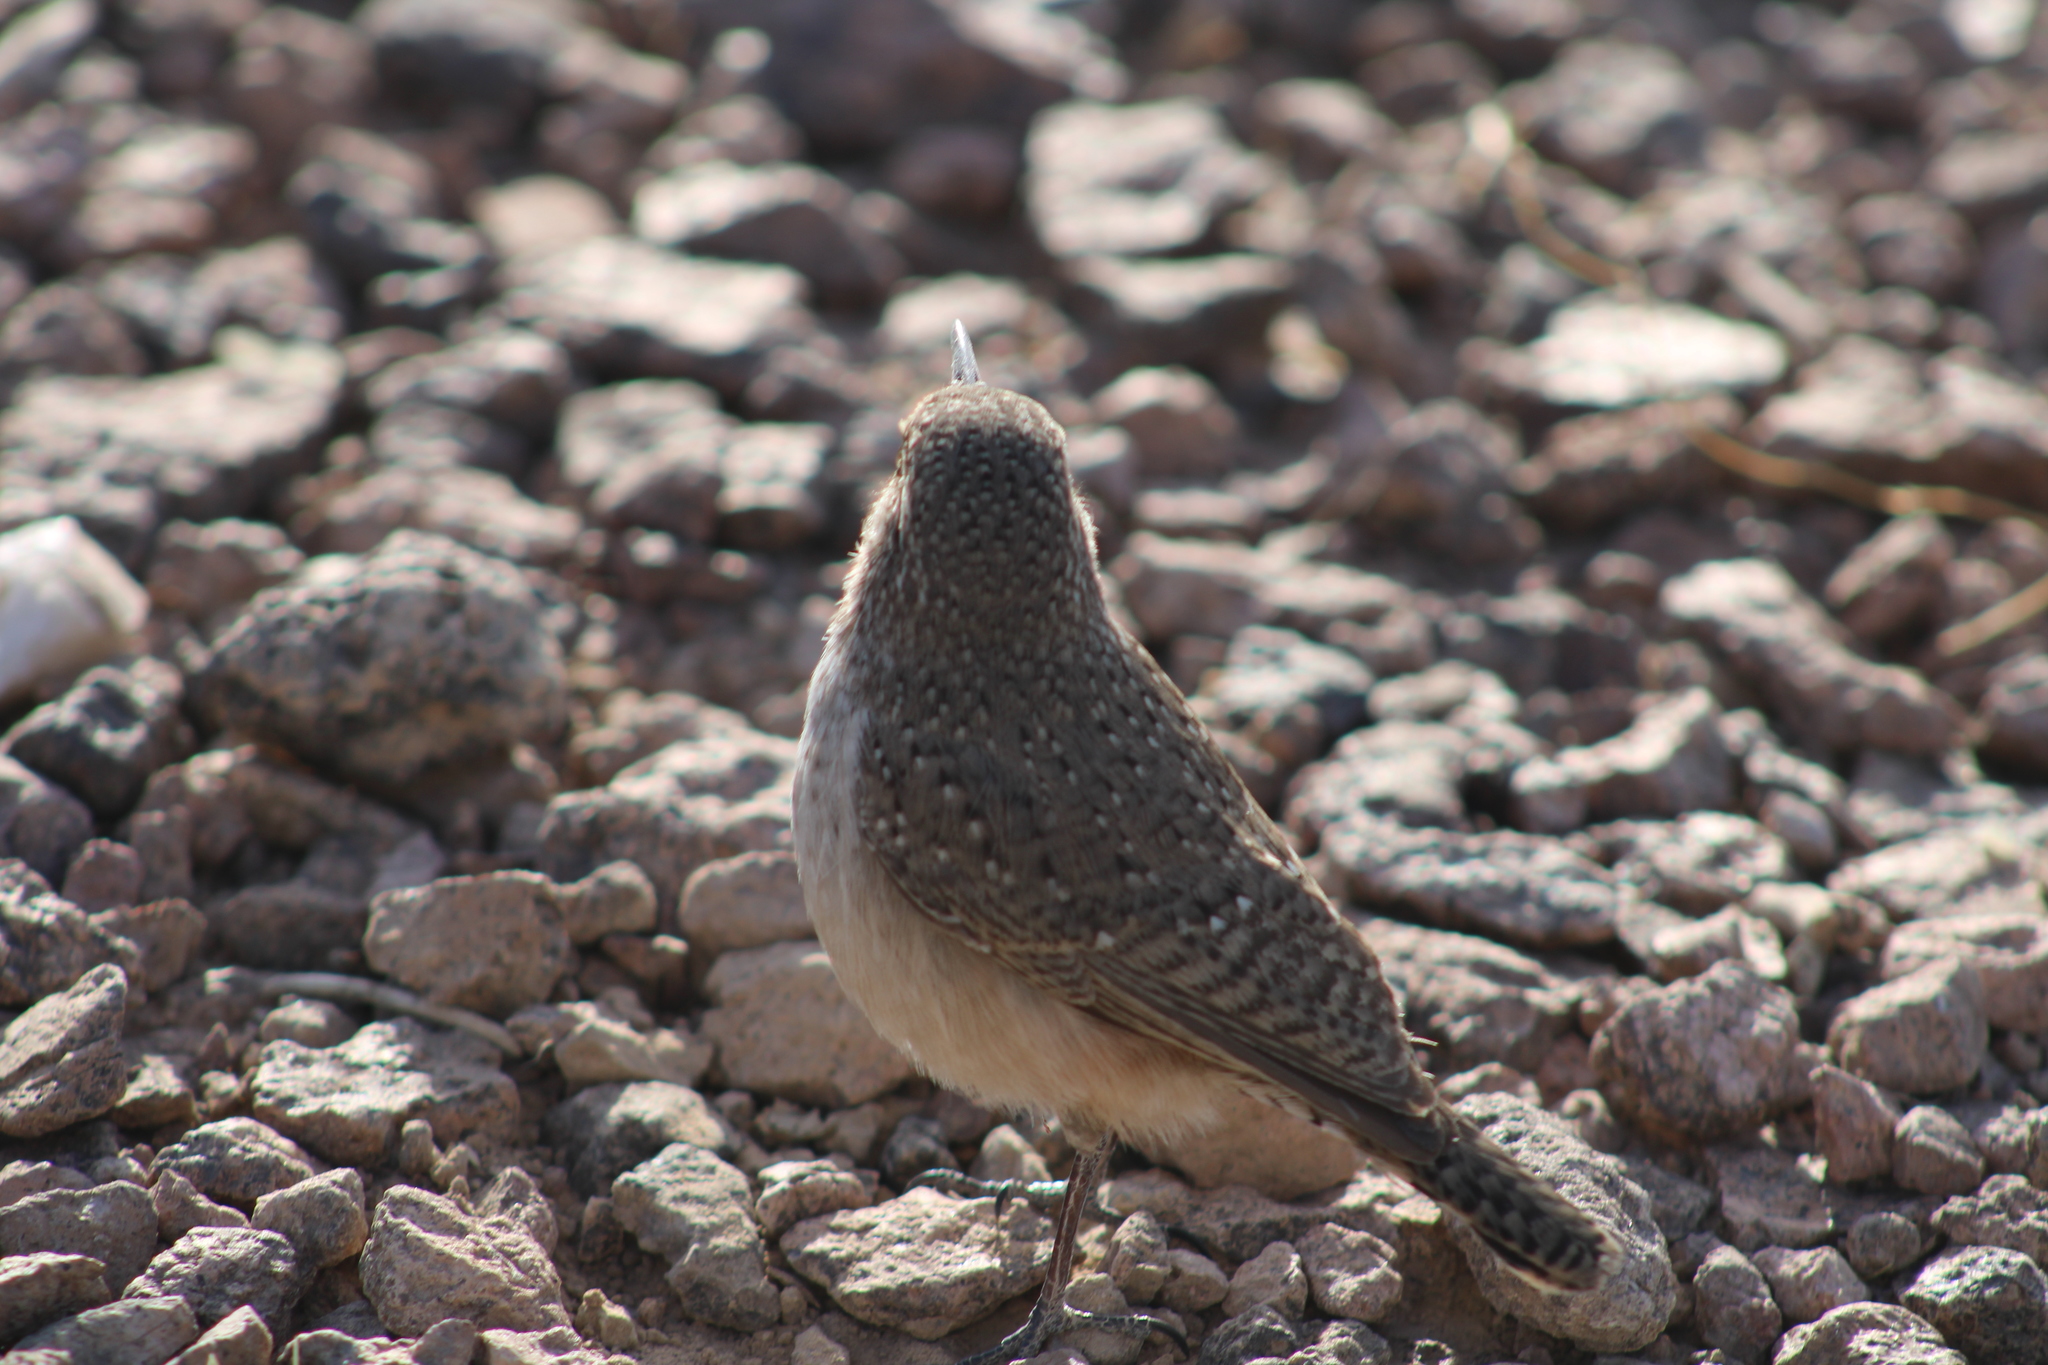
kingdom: Animalia
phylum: Chordata
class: Aves
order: Passeriformes
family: Troglodytidae
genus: Salpinctes
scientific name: Salpinctes obsoletus
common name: Rock wren
